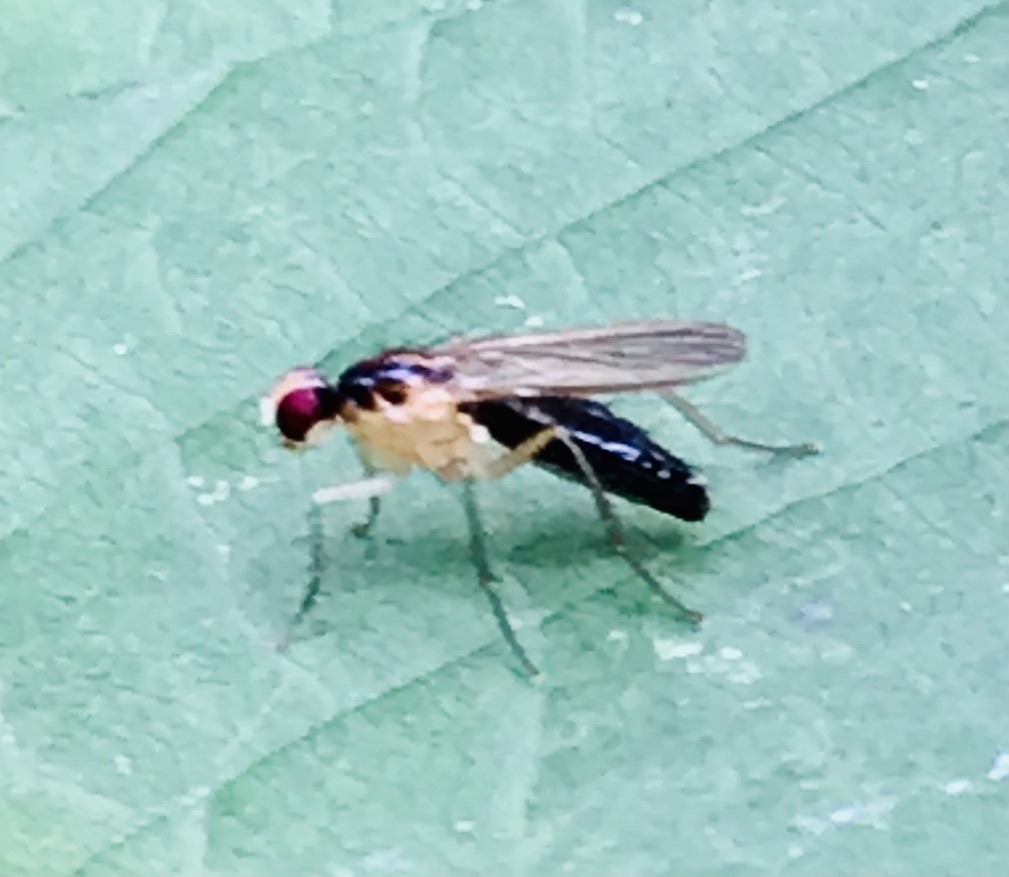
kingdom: Animalia
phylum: Arthropoda
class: Insecta
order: Diptera
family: Scathophagidae
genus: Cordilura
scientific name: Cordilura albipes
